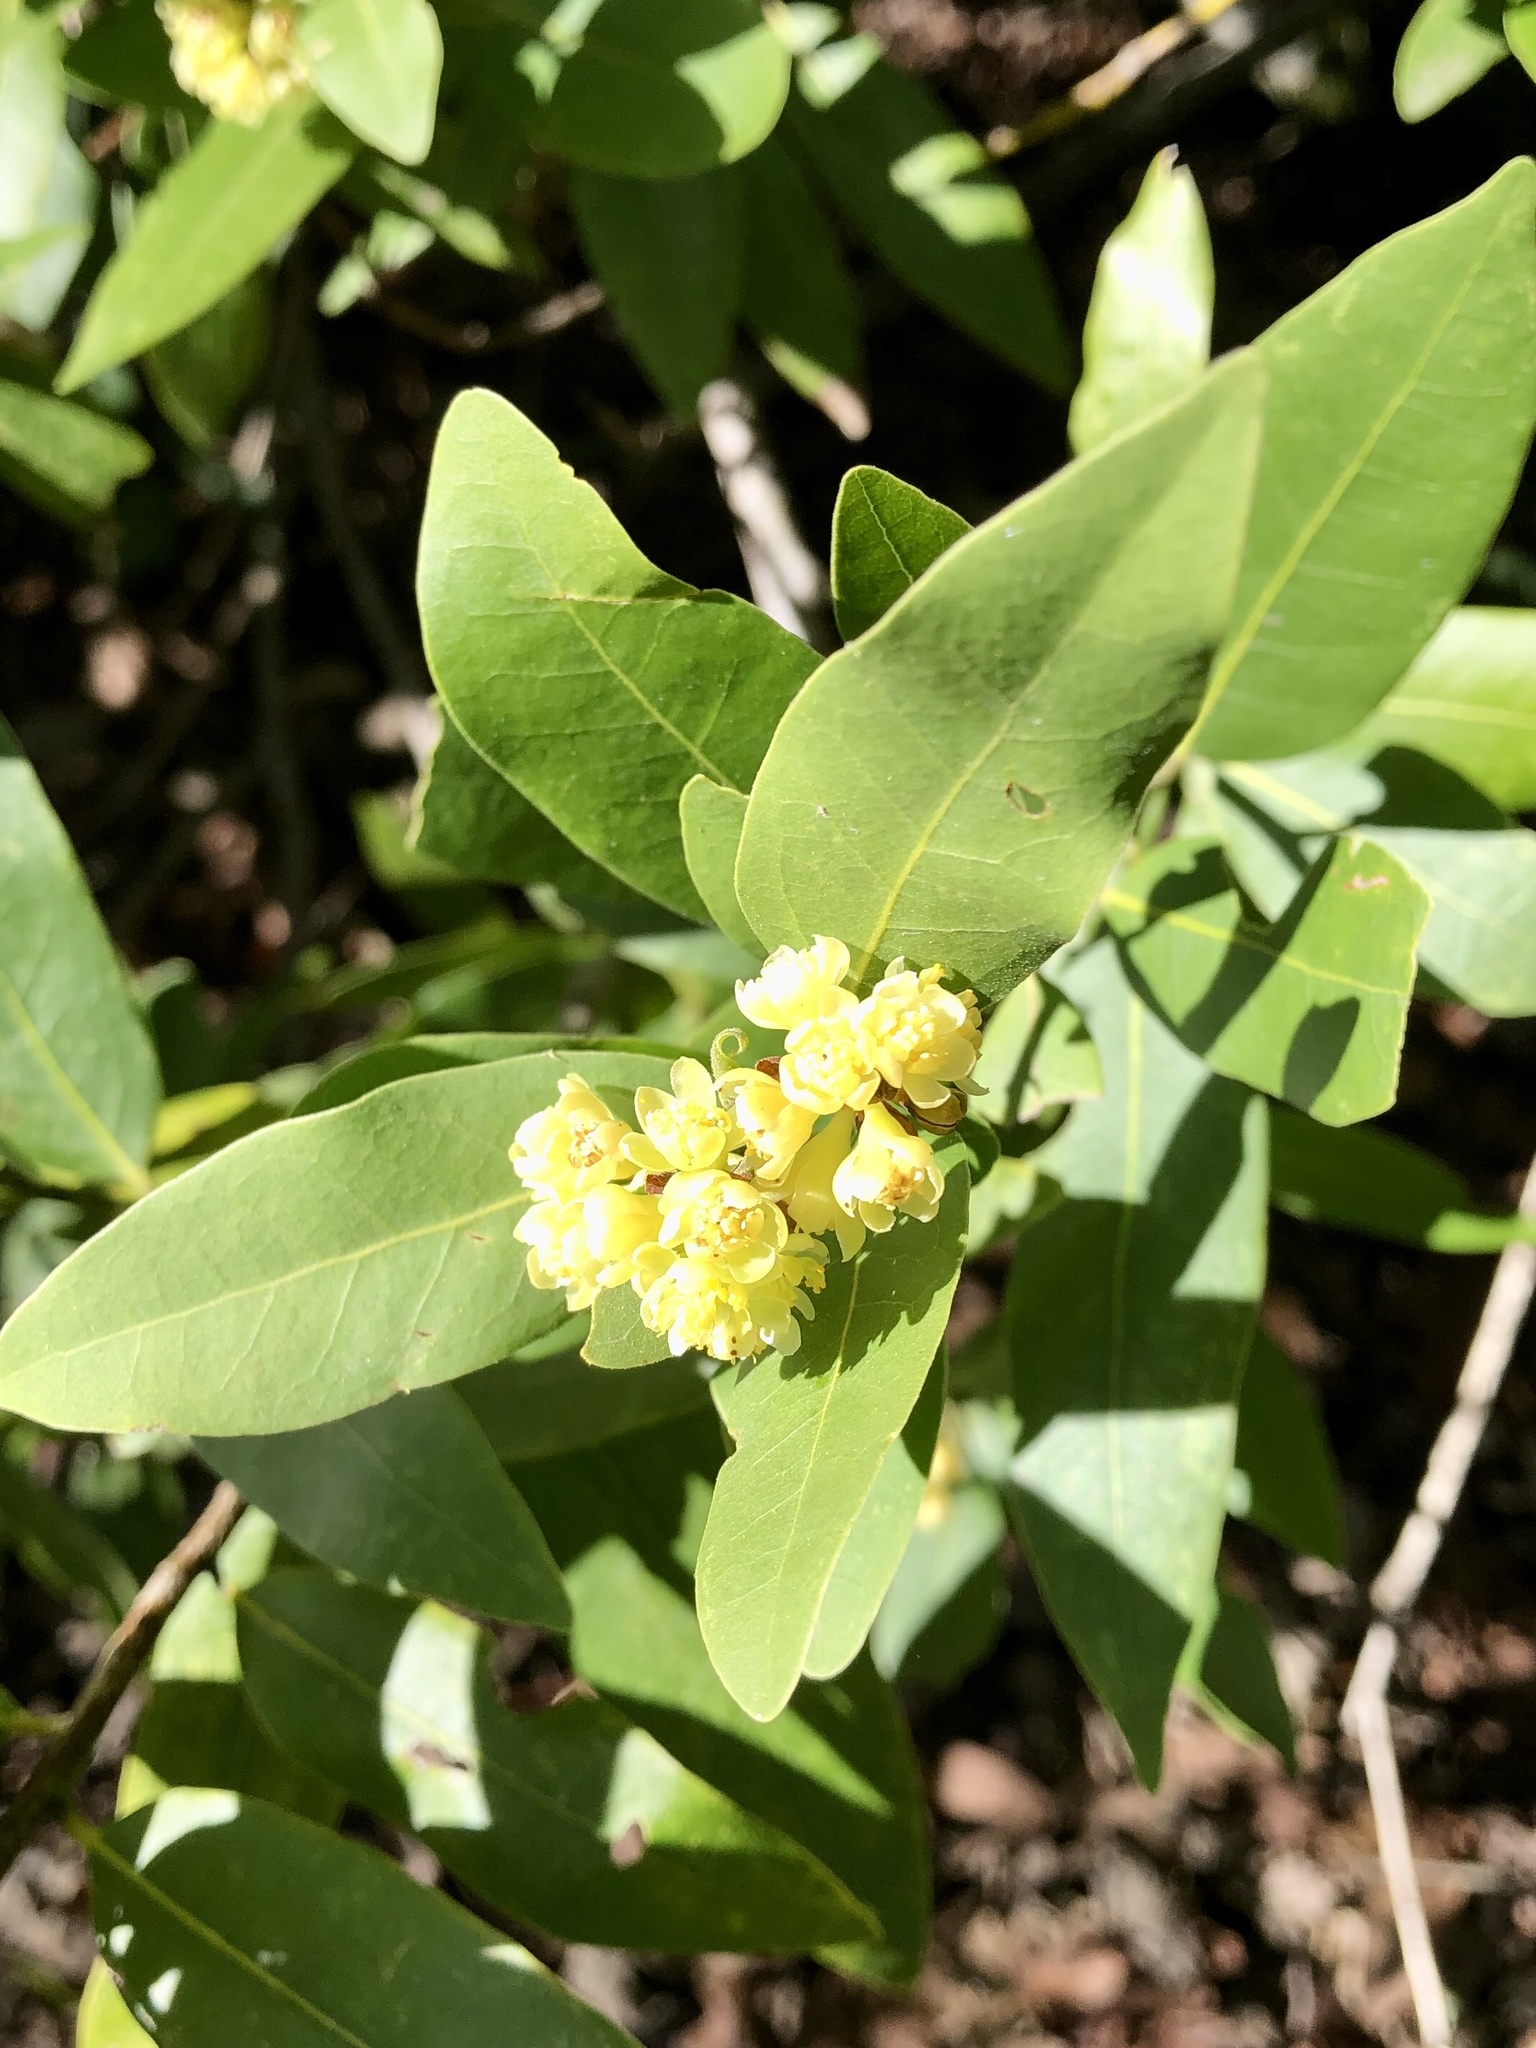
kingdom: Plantae
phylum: Tracheophyta
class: Magnoliopsida
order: Laurales
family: Lauraceae
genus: Umbellularia
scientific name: Umbellularia californica
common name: California bay
